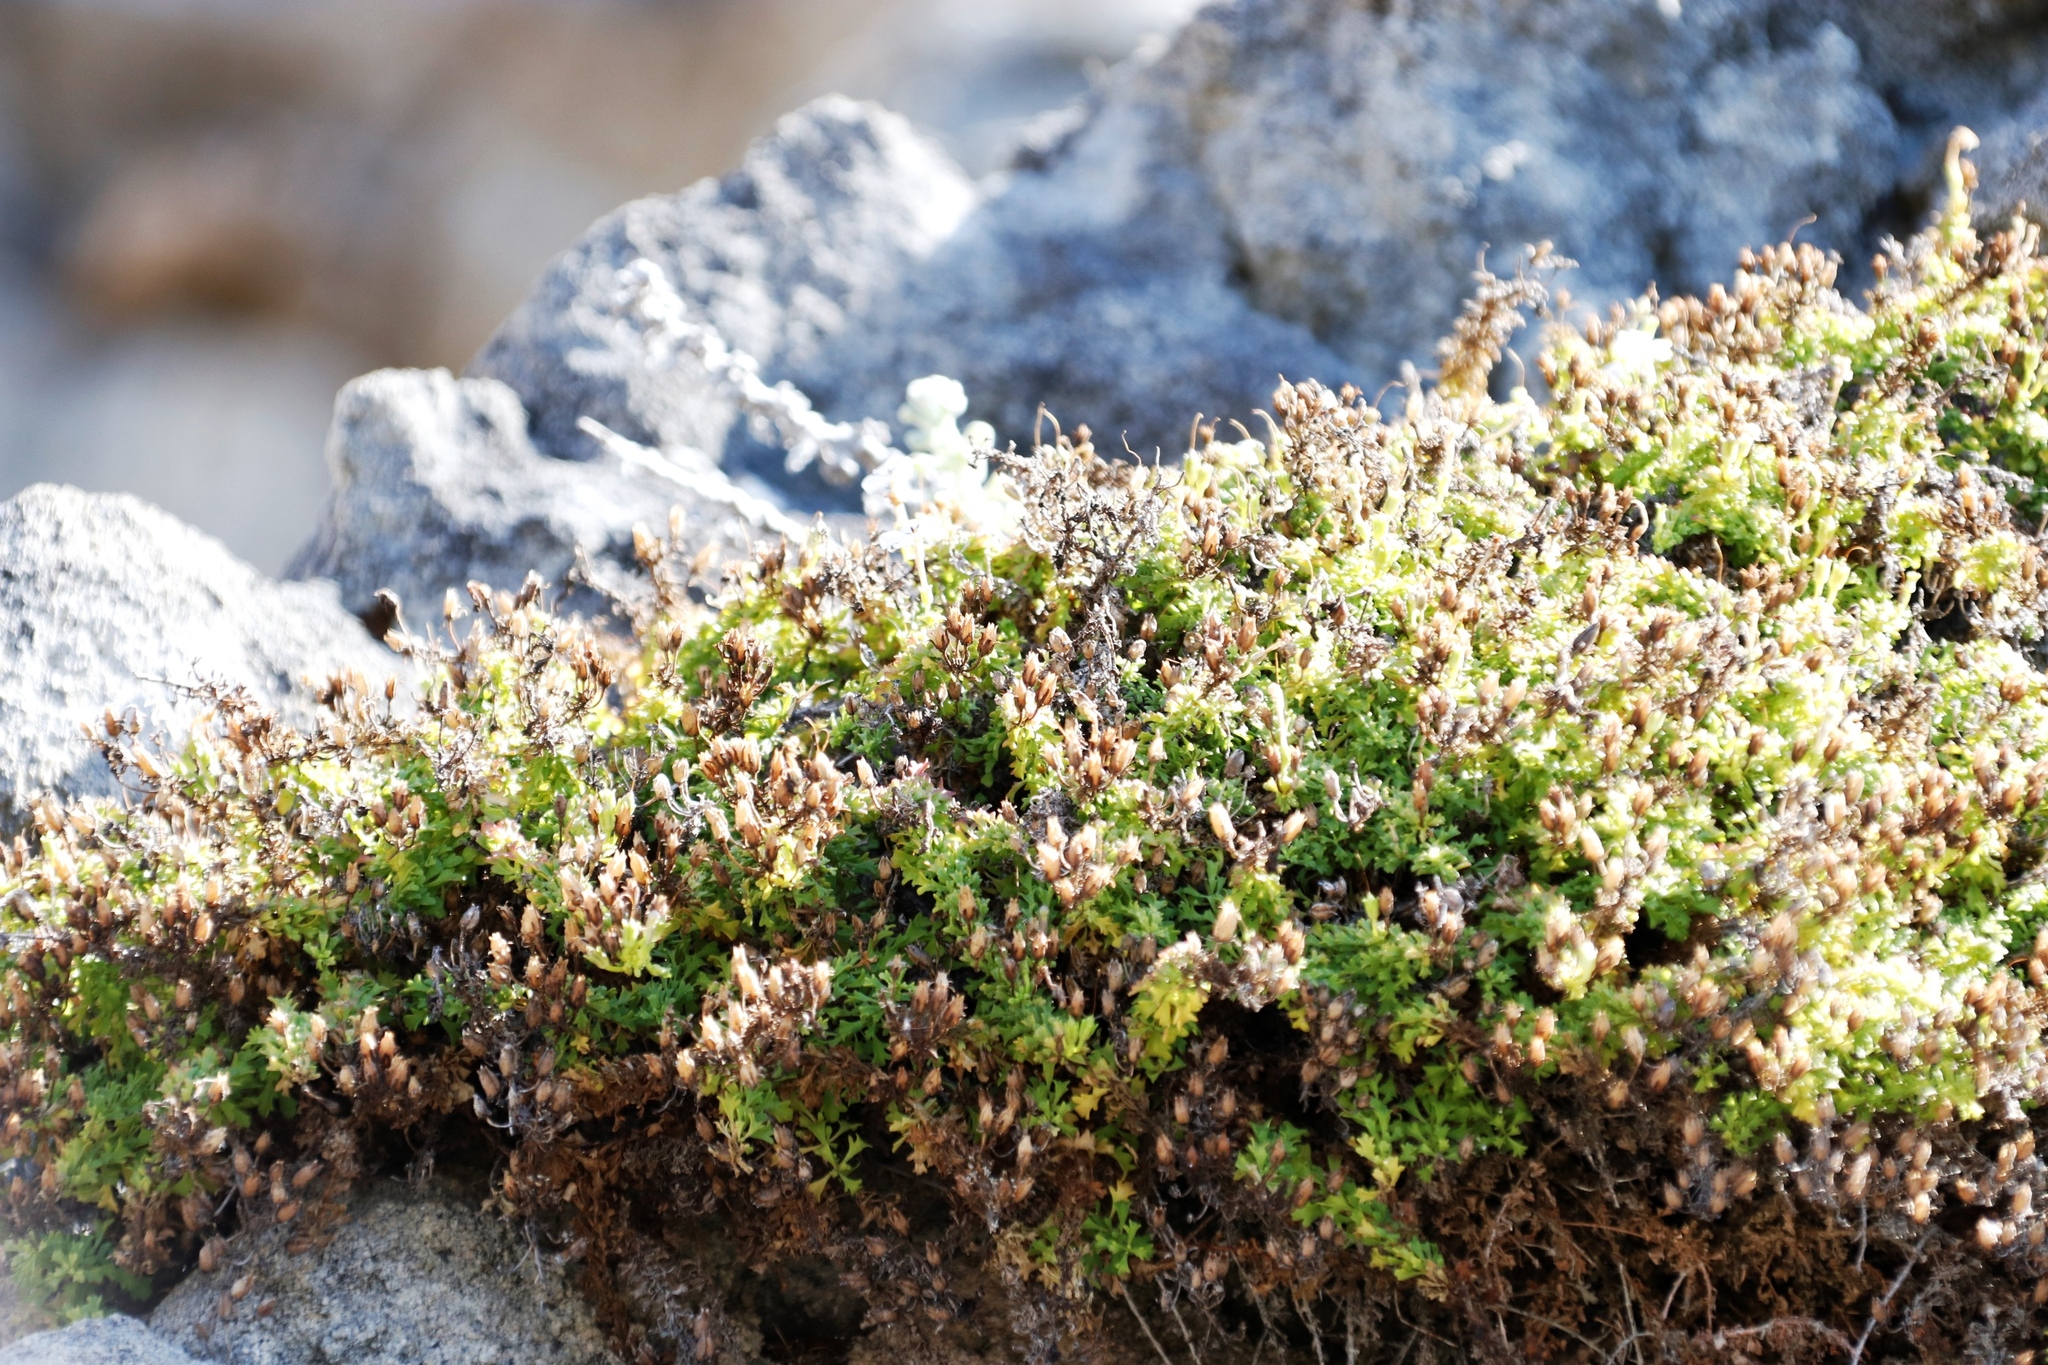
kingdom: Plantae
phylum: Tracheophyta
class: Magnoliopsida
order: Lamiales
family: Scrophulariaceae
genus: Jamesbrittenia
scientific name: Jamesbrittenia stellata
